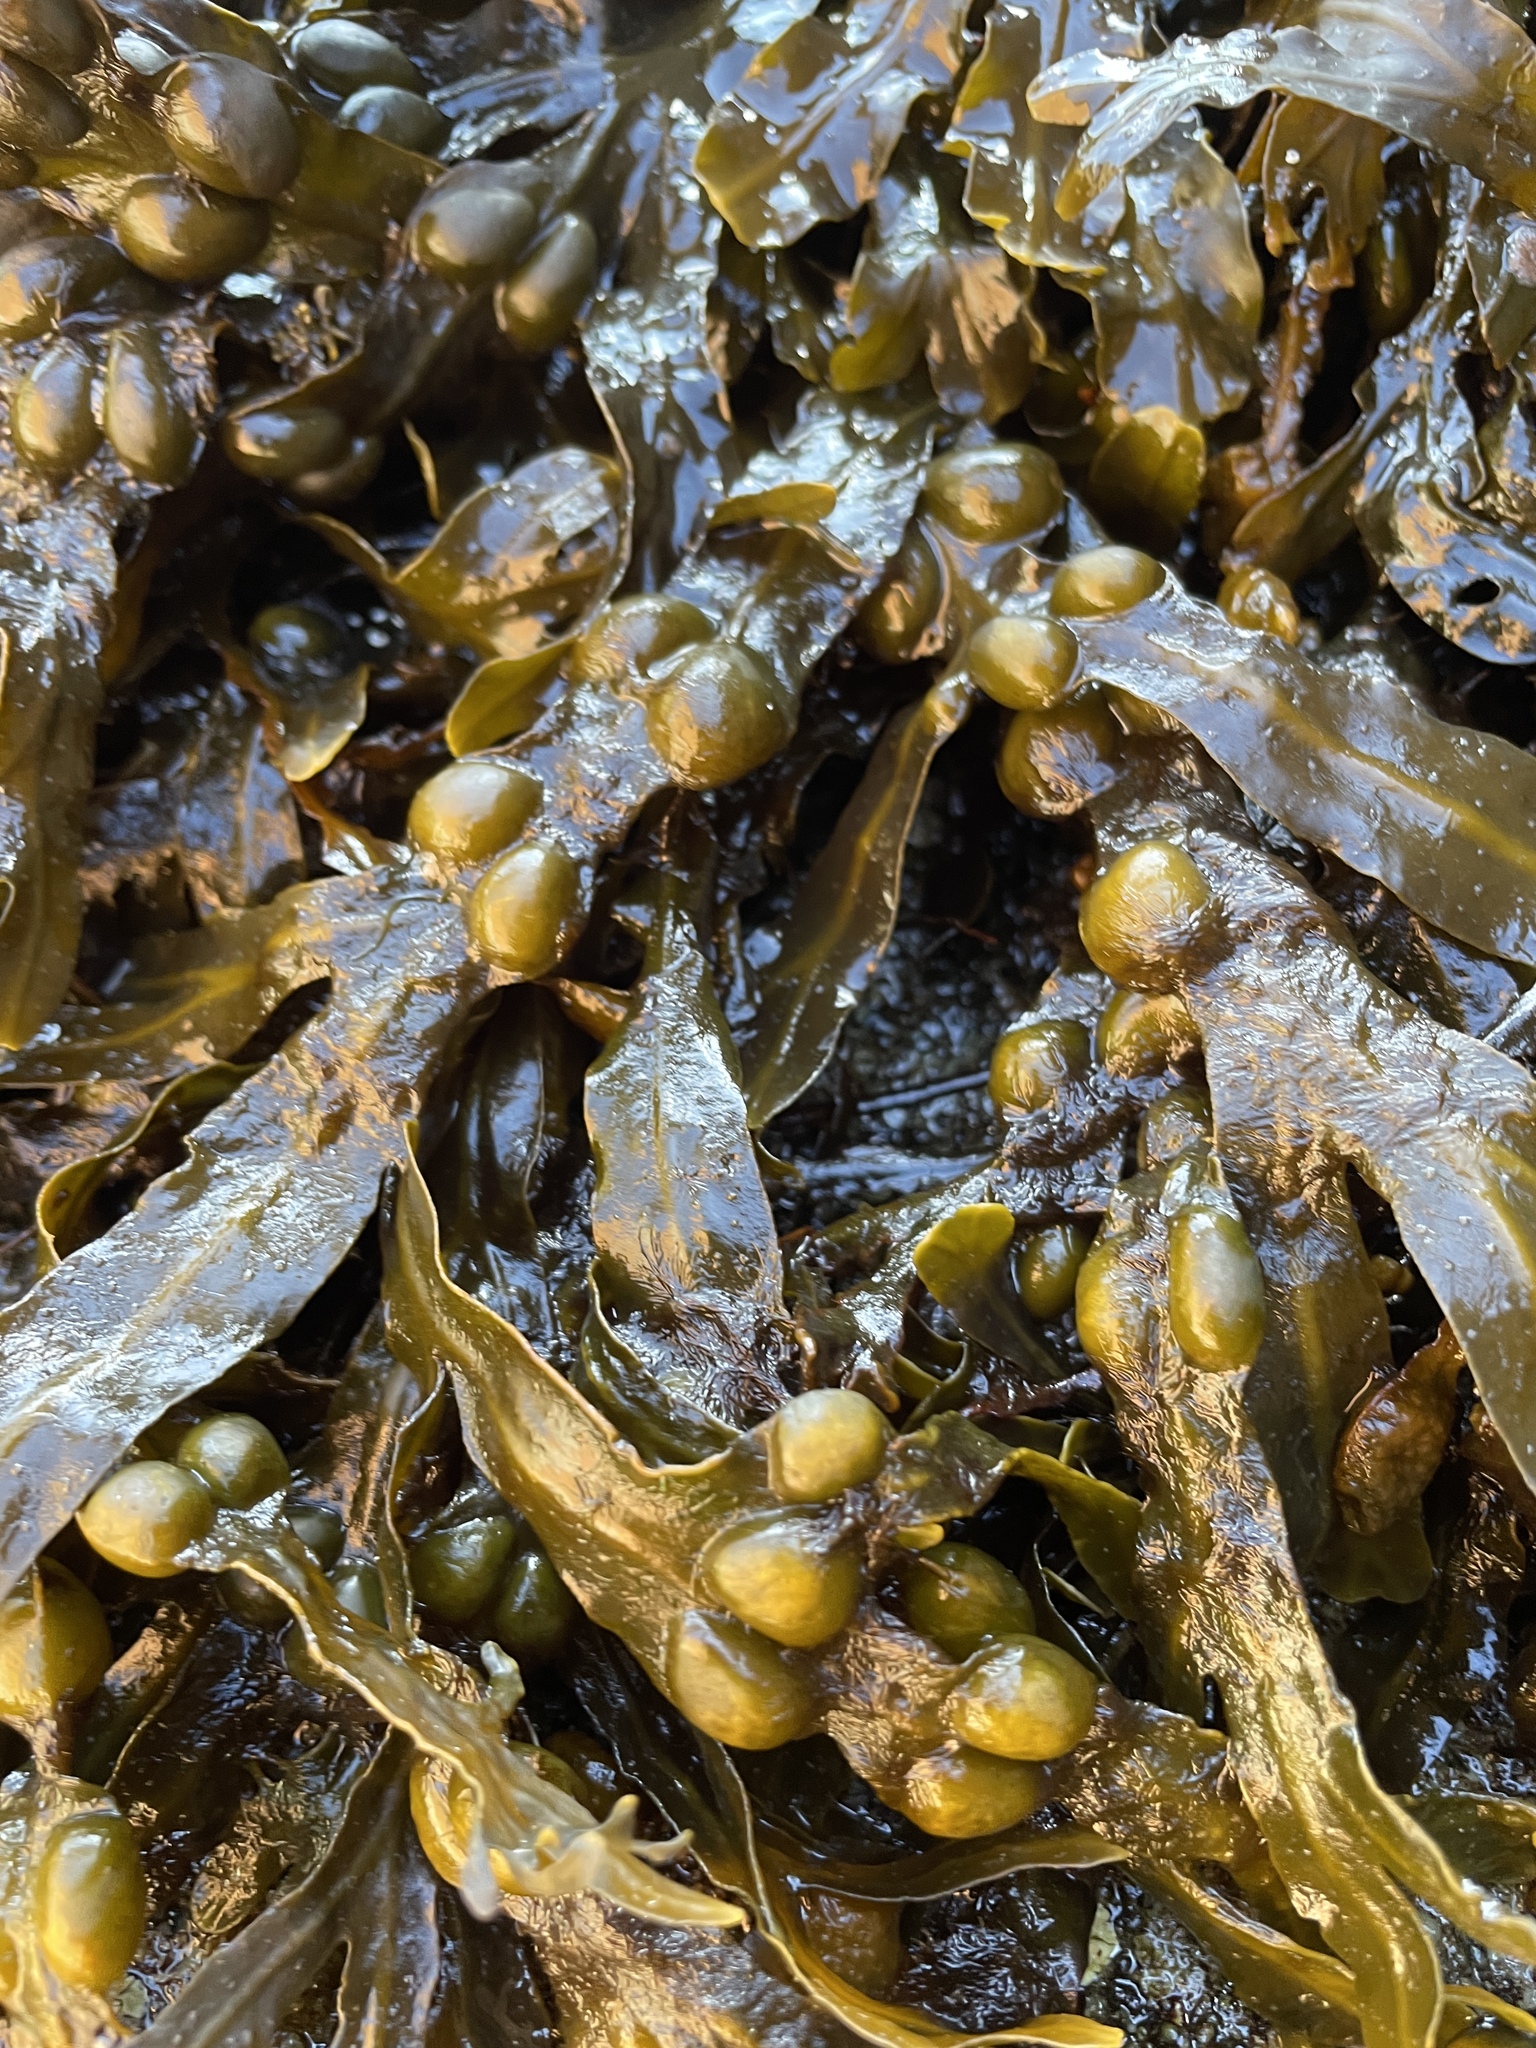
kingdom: Chromista
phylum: Ochrophyta
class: Phaeophyceae
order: Fucales
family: Fucaceae
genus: Fucus
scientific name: Fucus vesiculosus
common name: Bladder wrack
